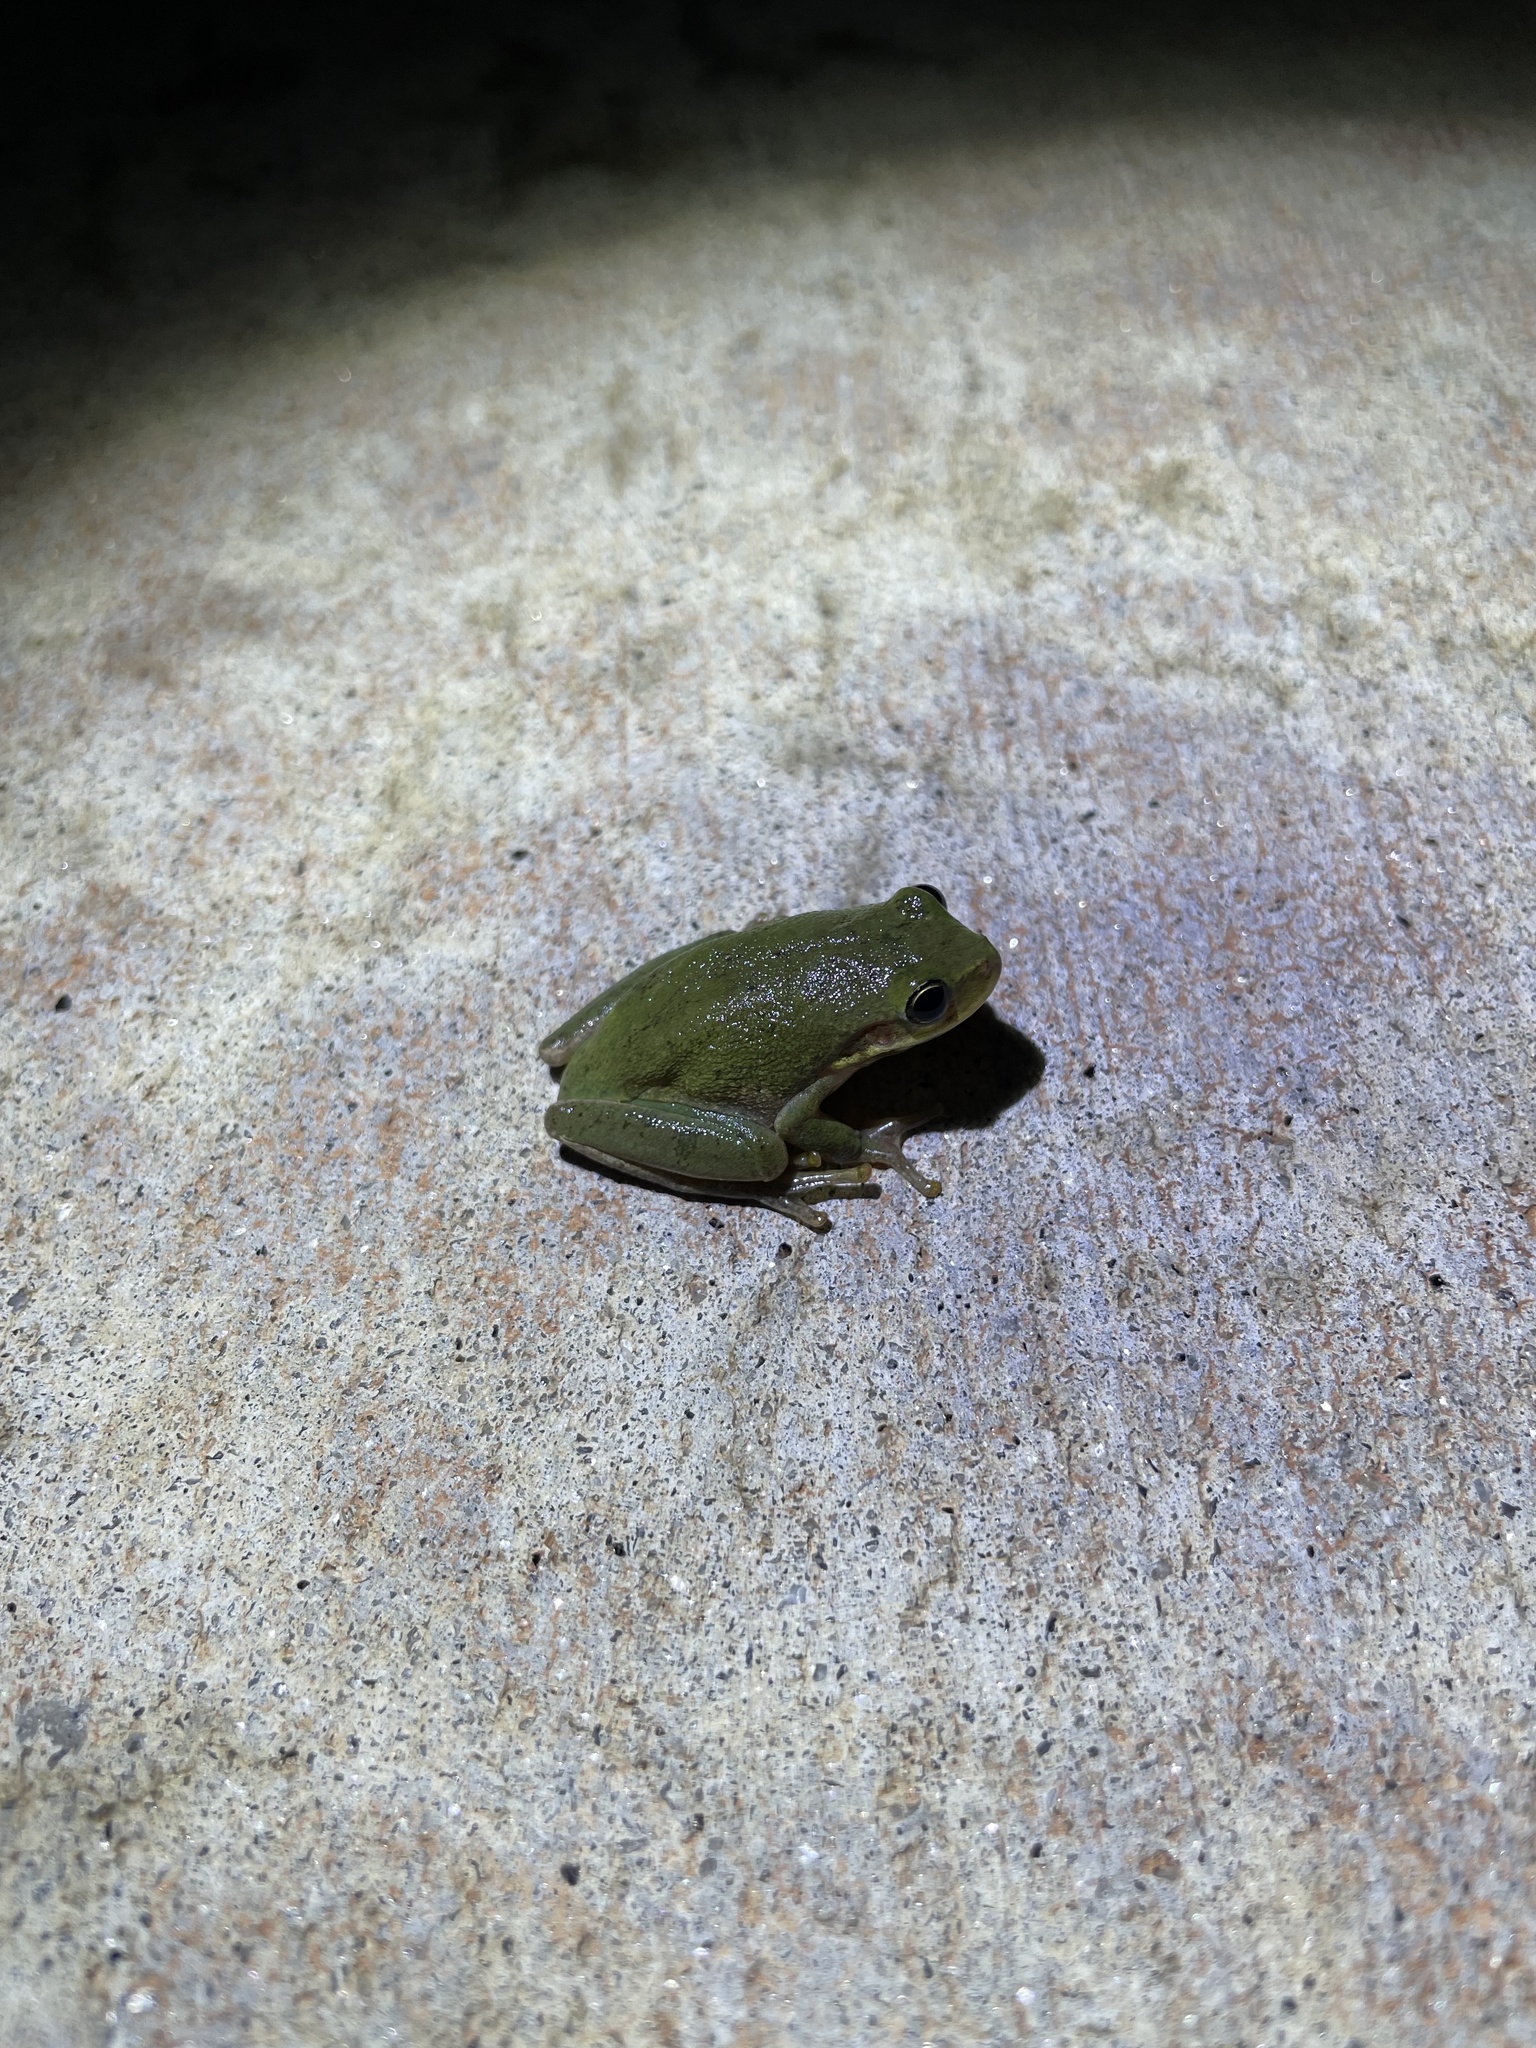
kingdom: Animalia
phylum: Chordata
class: Amphibia
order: Anura
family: Hylidae
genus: Dryophytes
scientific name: Dryophytes squirellus
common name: Squirrel treefrog
